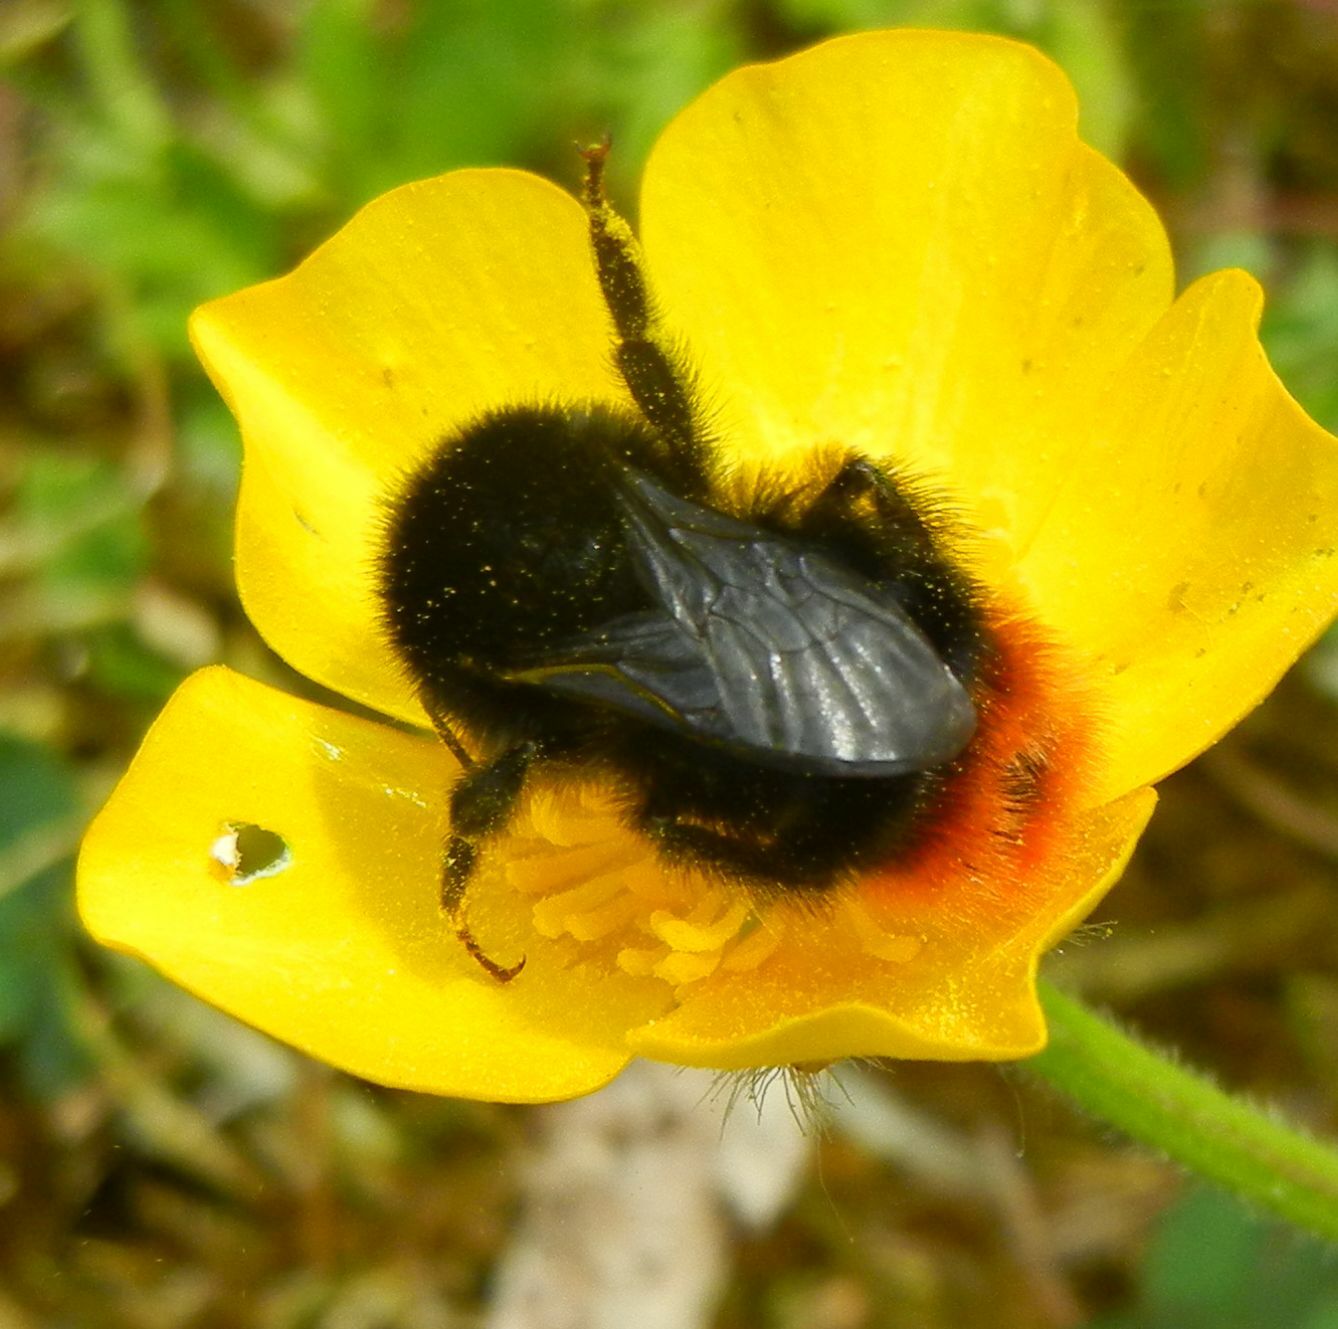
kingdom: Animalia
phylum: Arthropoda
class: Insecta
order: Hymenoptera
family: Apidae
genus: Bombus
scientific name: Bombus lapidarius
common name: Large red-tailed humble-bee
